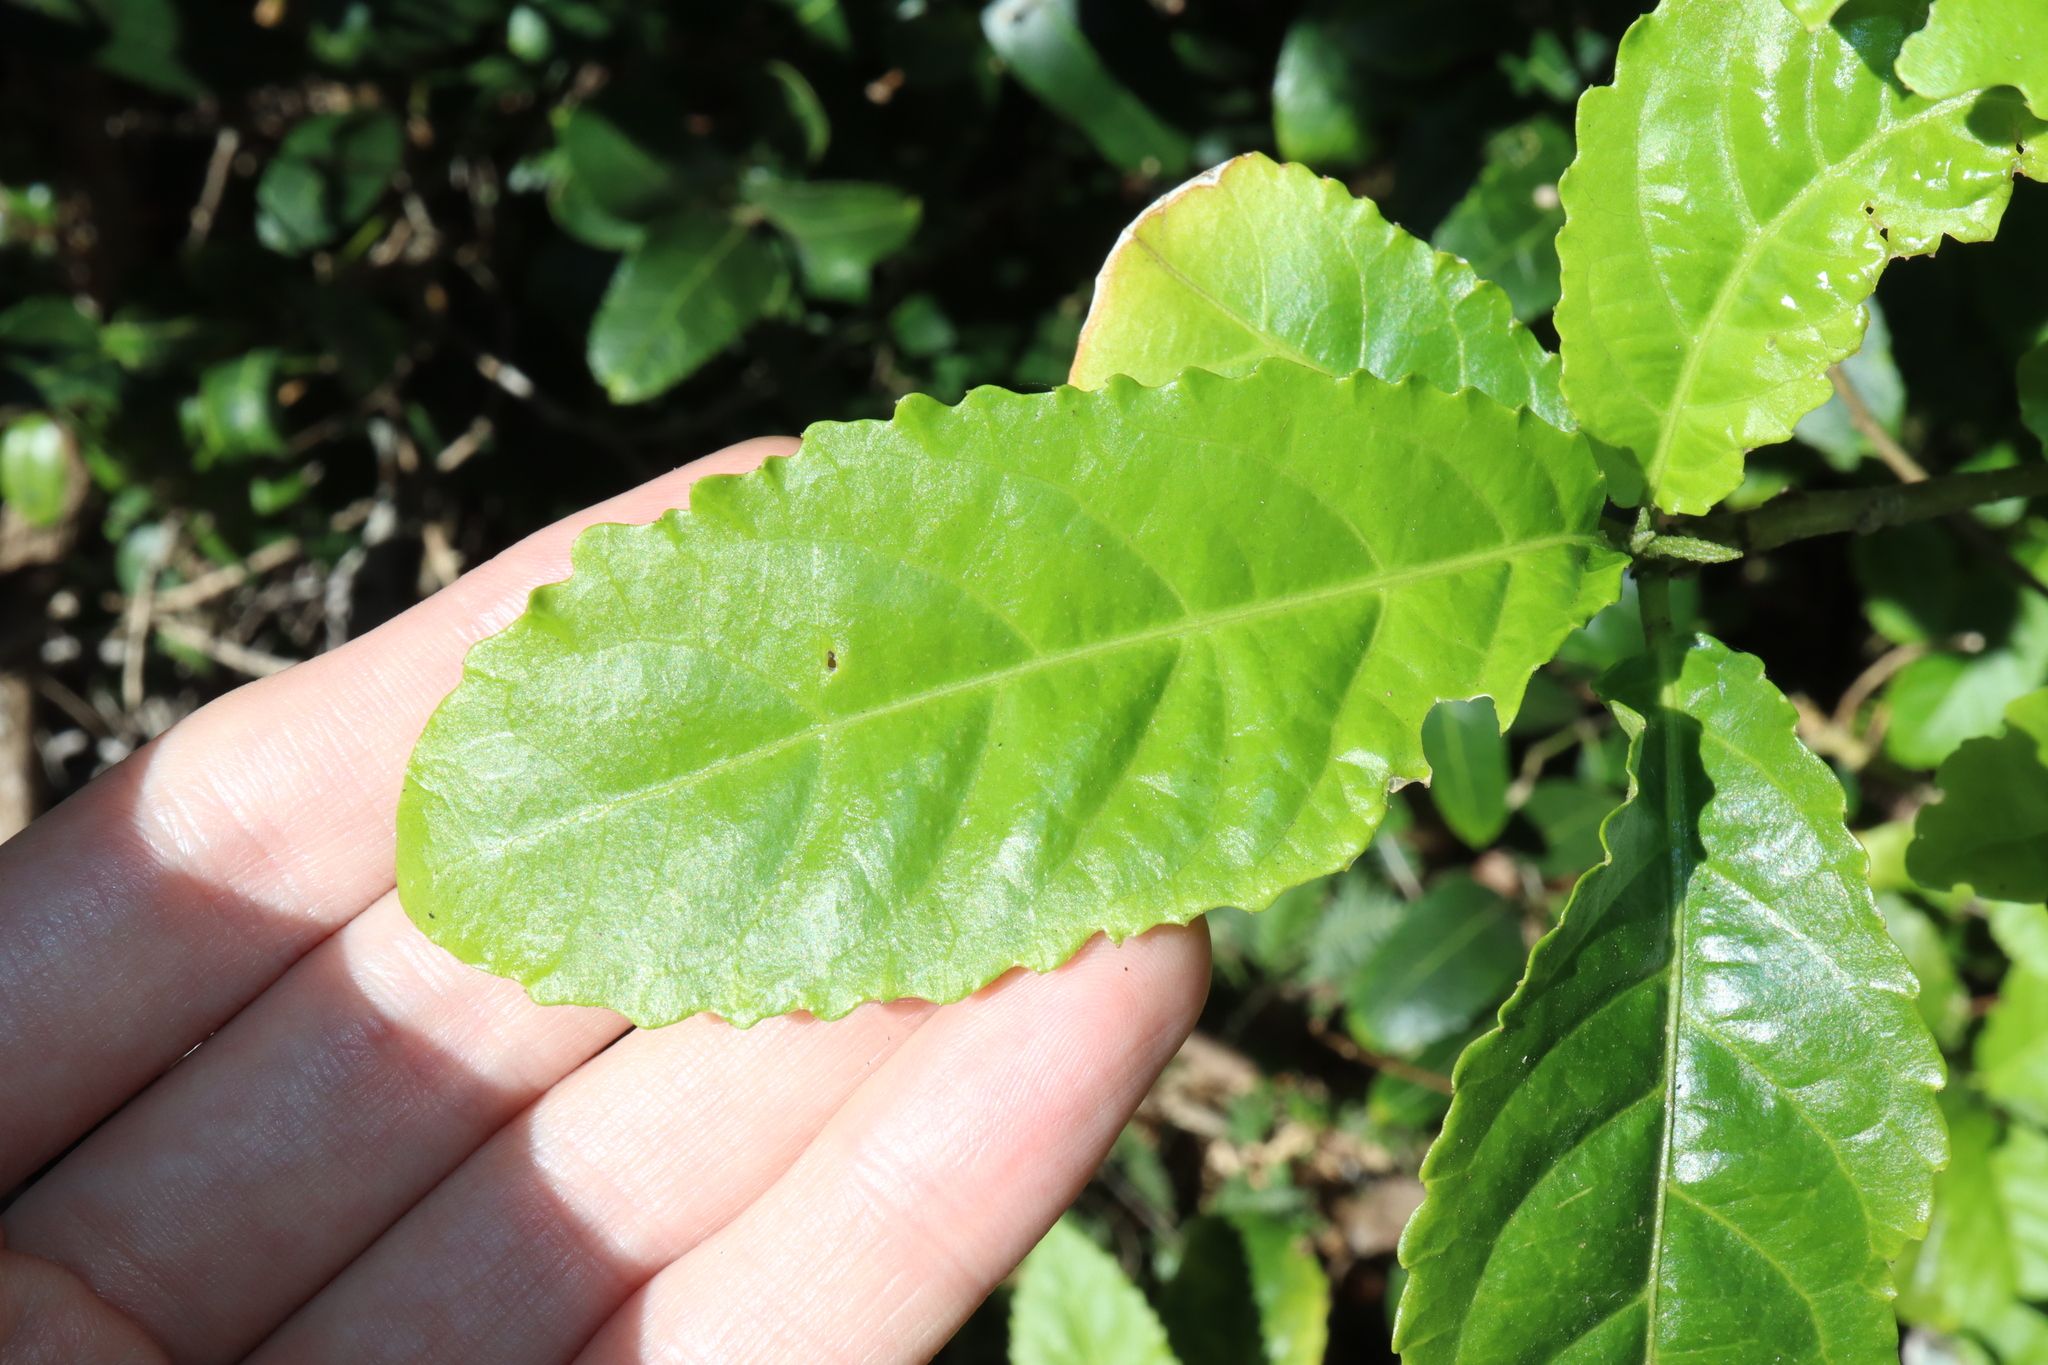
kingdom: Plantae
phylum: Tracheophyta
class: Magnoliopsida
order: Malpighiales
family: Euphorbiaceae
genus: Claoxylon
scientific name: Claoxylon australe
